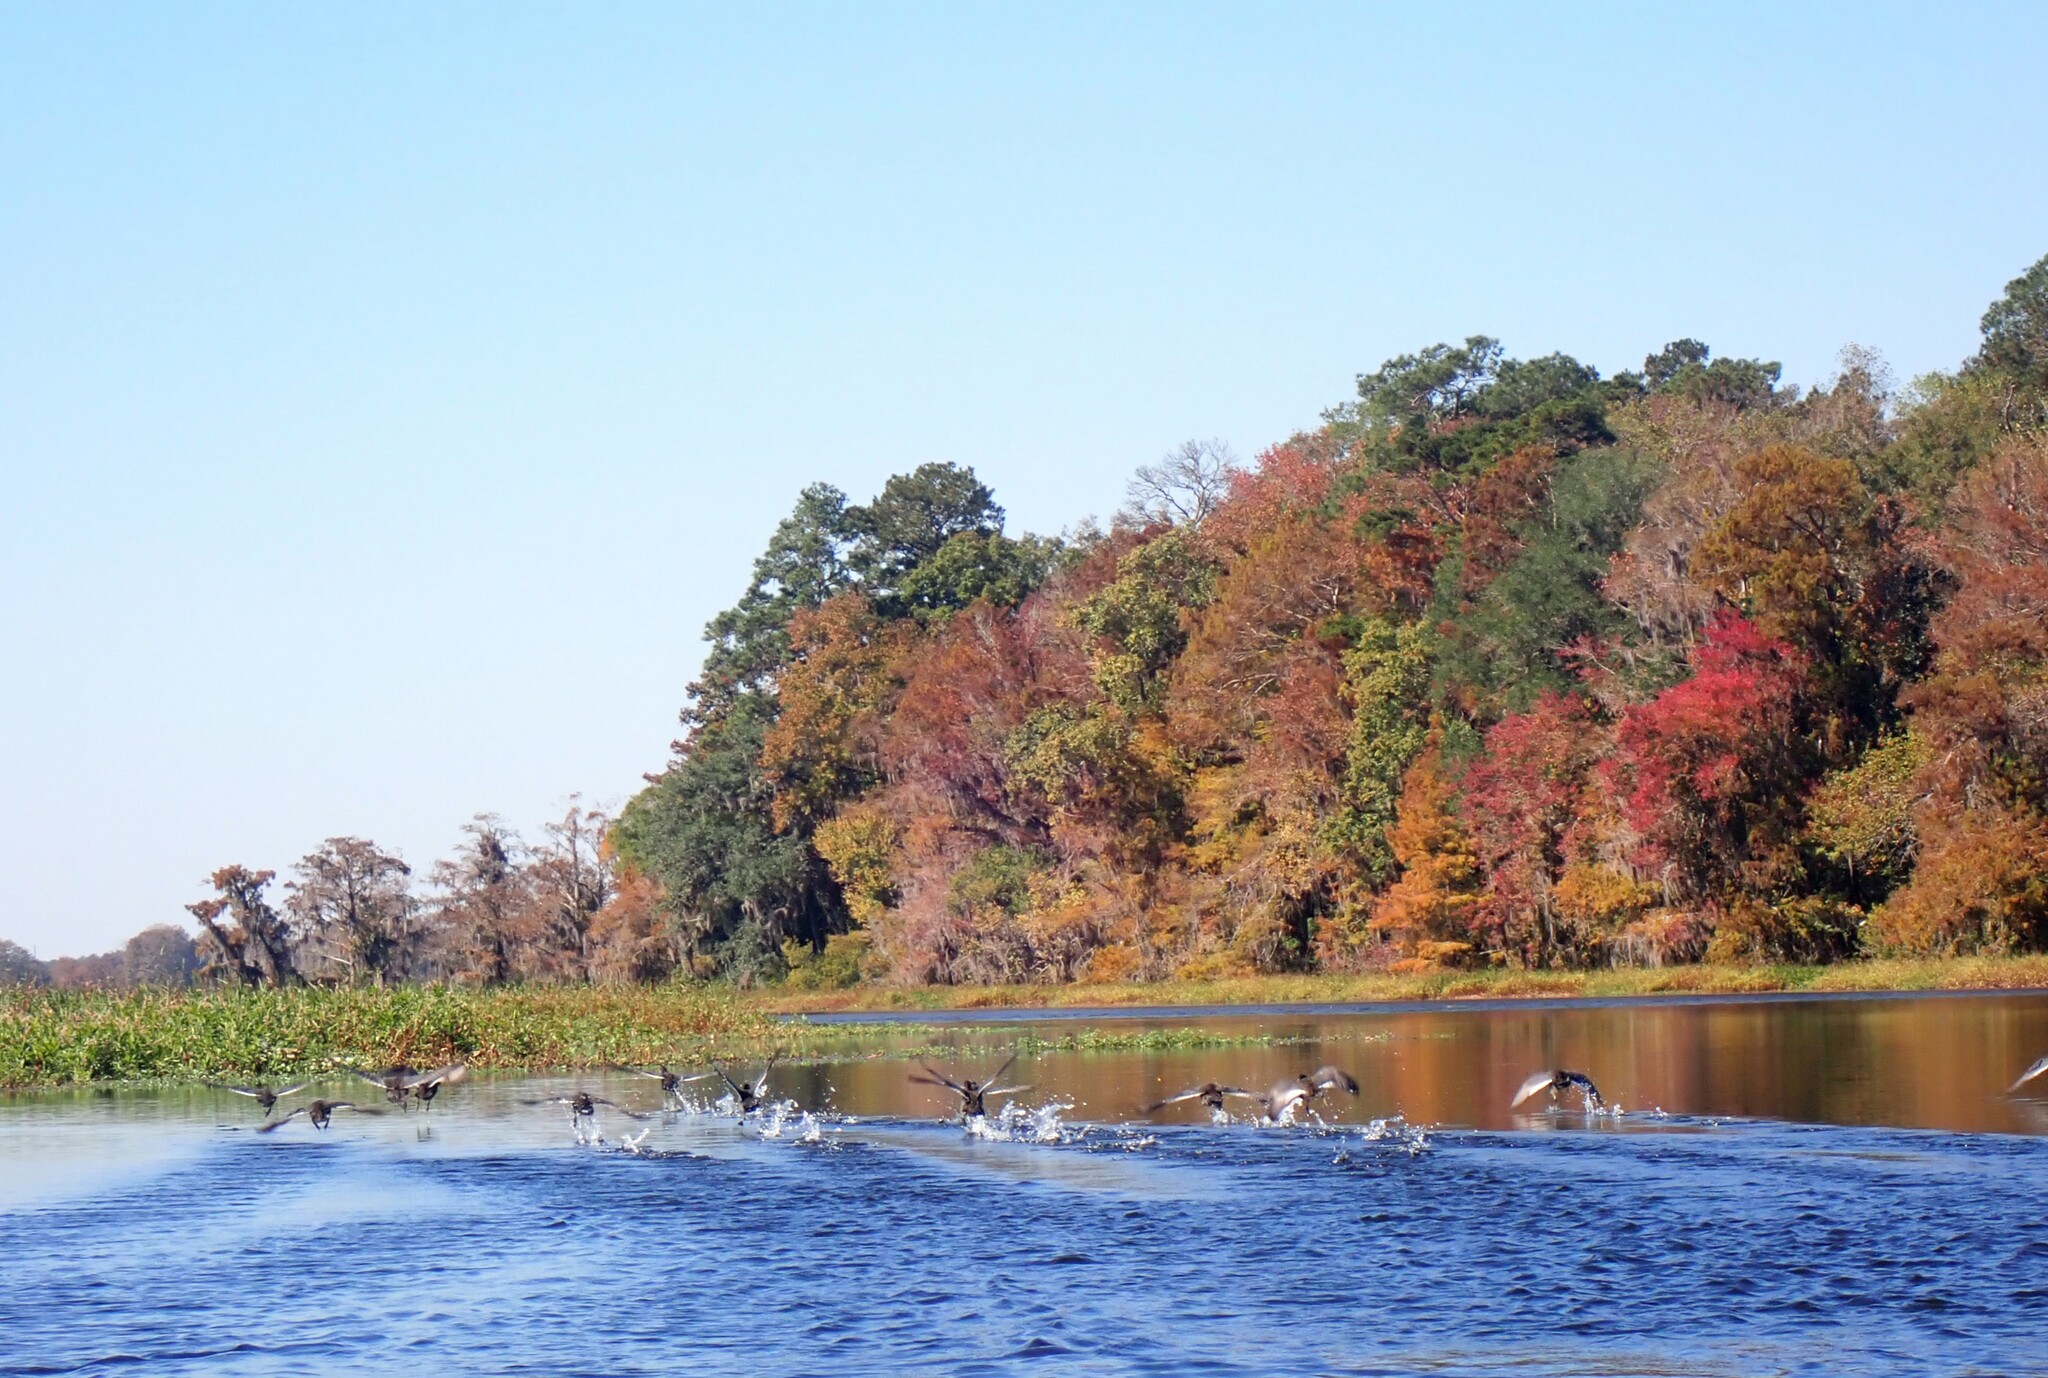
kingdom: Animalia
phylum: Chordata
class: Aves
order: Gruiformes
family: Rallidae
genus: Fulica
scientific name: Fulica americana
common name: American coot
